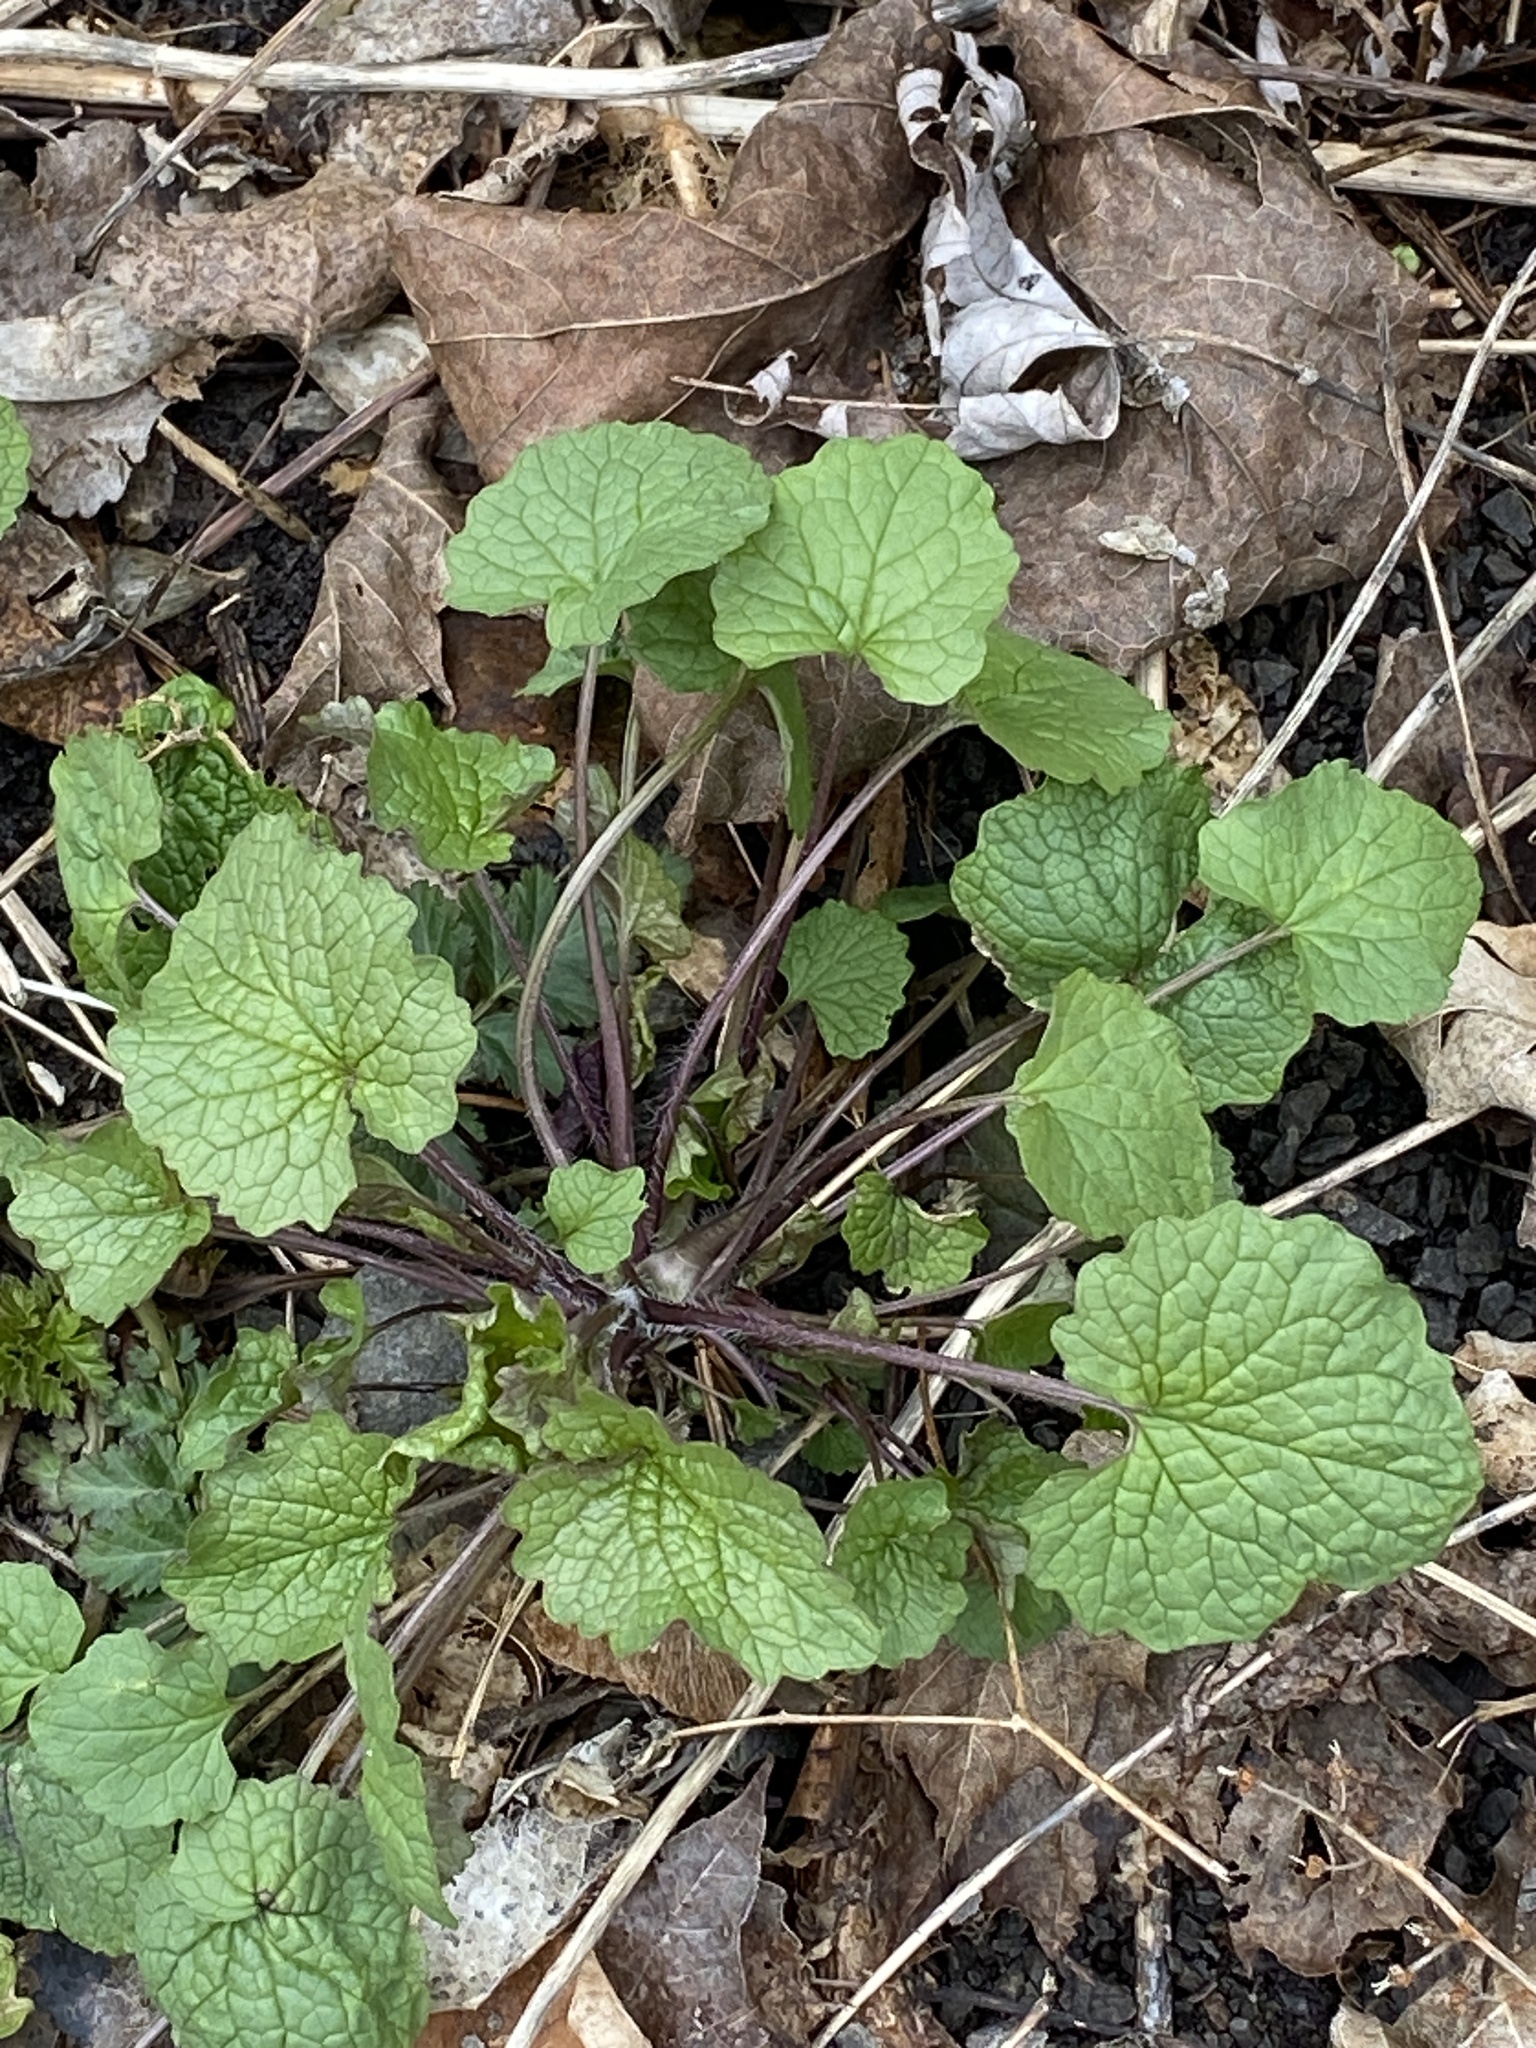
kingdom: Plantae
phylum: Tracheophyta
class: Magnoliopsida
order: Brassicales
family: Brassicaceae
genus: Alliaria
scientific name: Alliaria petiolata
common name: Garlic mustard
